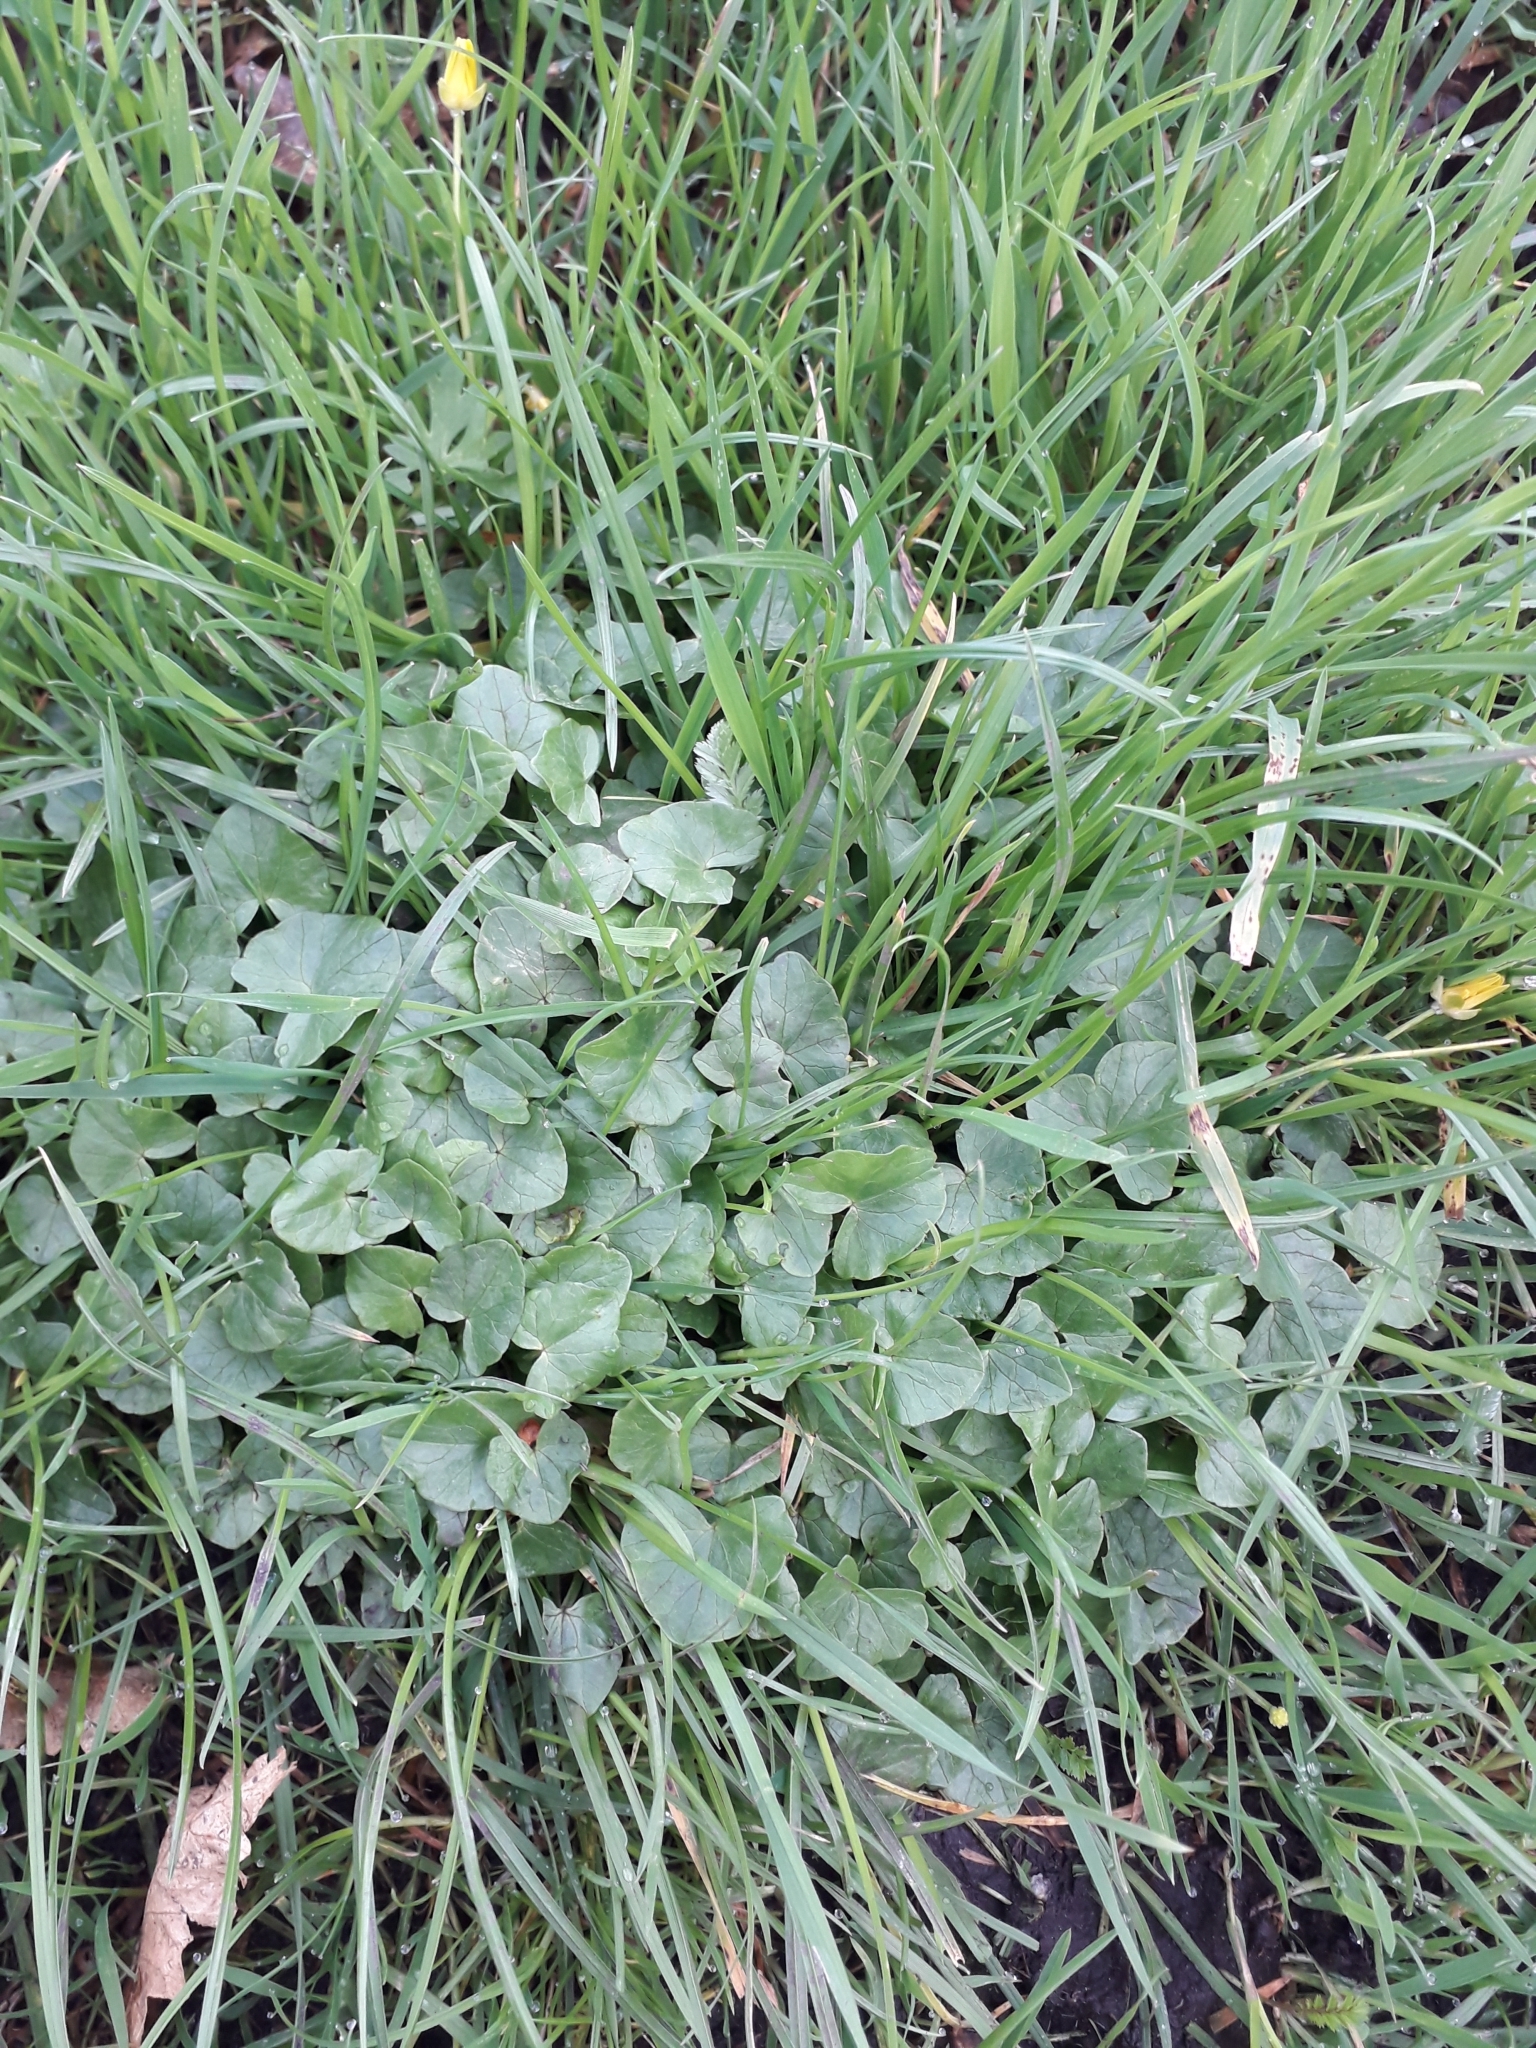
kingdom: Plantae
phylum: Tracheophyta
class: Magnoliopsida
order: Ranunculales
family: Ranunculaceae
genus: Ficaria
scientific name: Ficaria verna
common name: Lesser celandine
